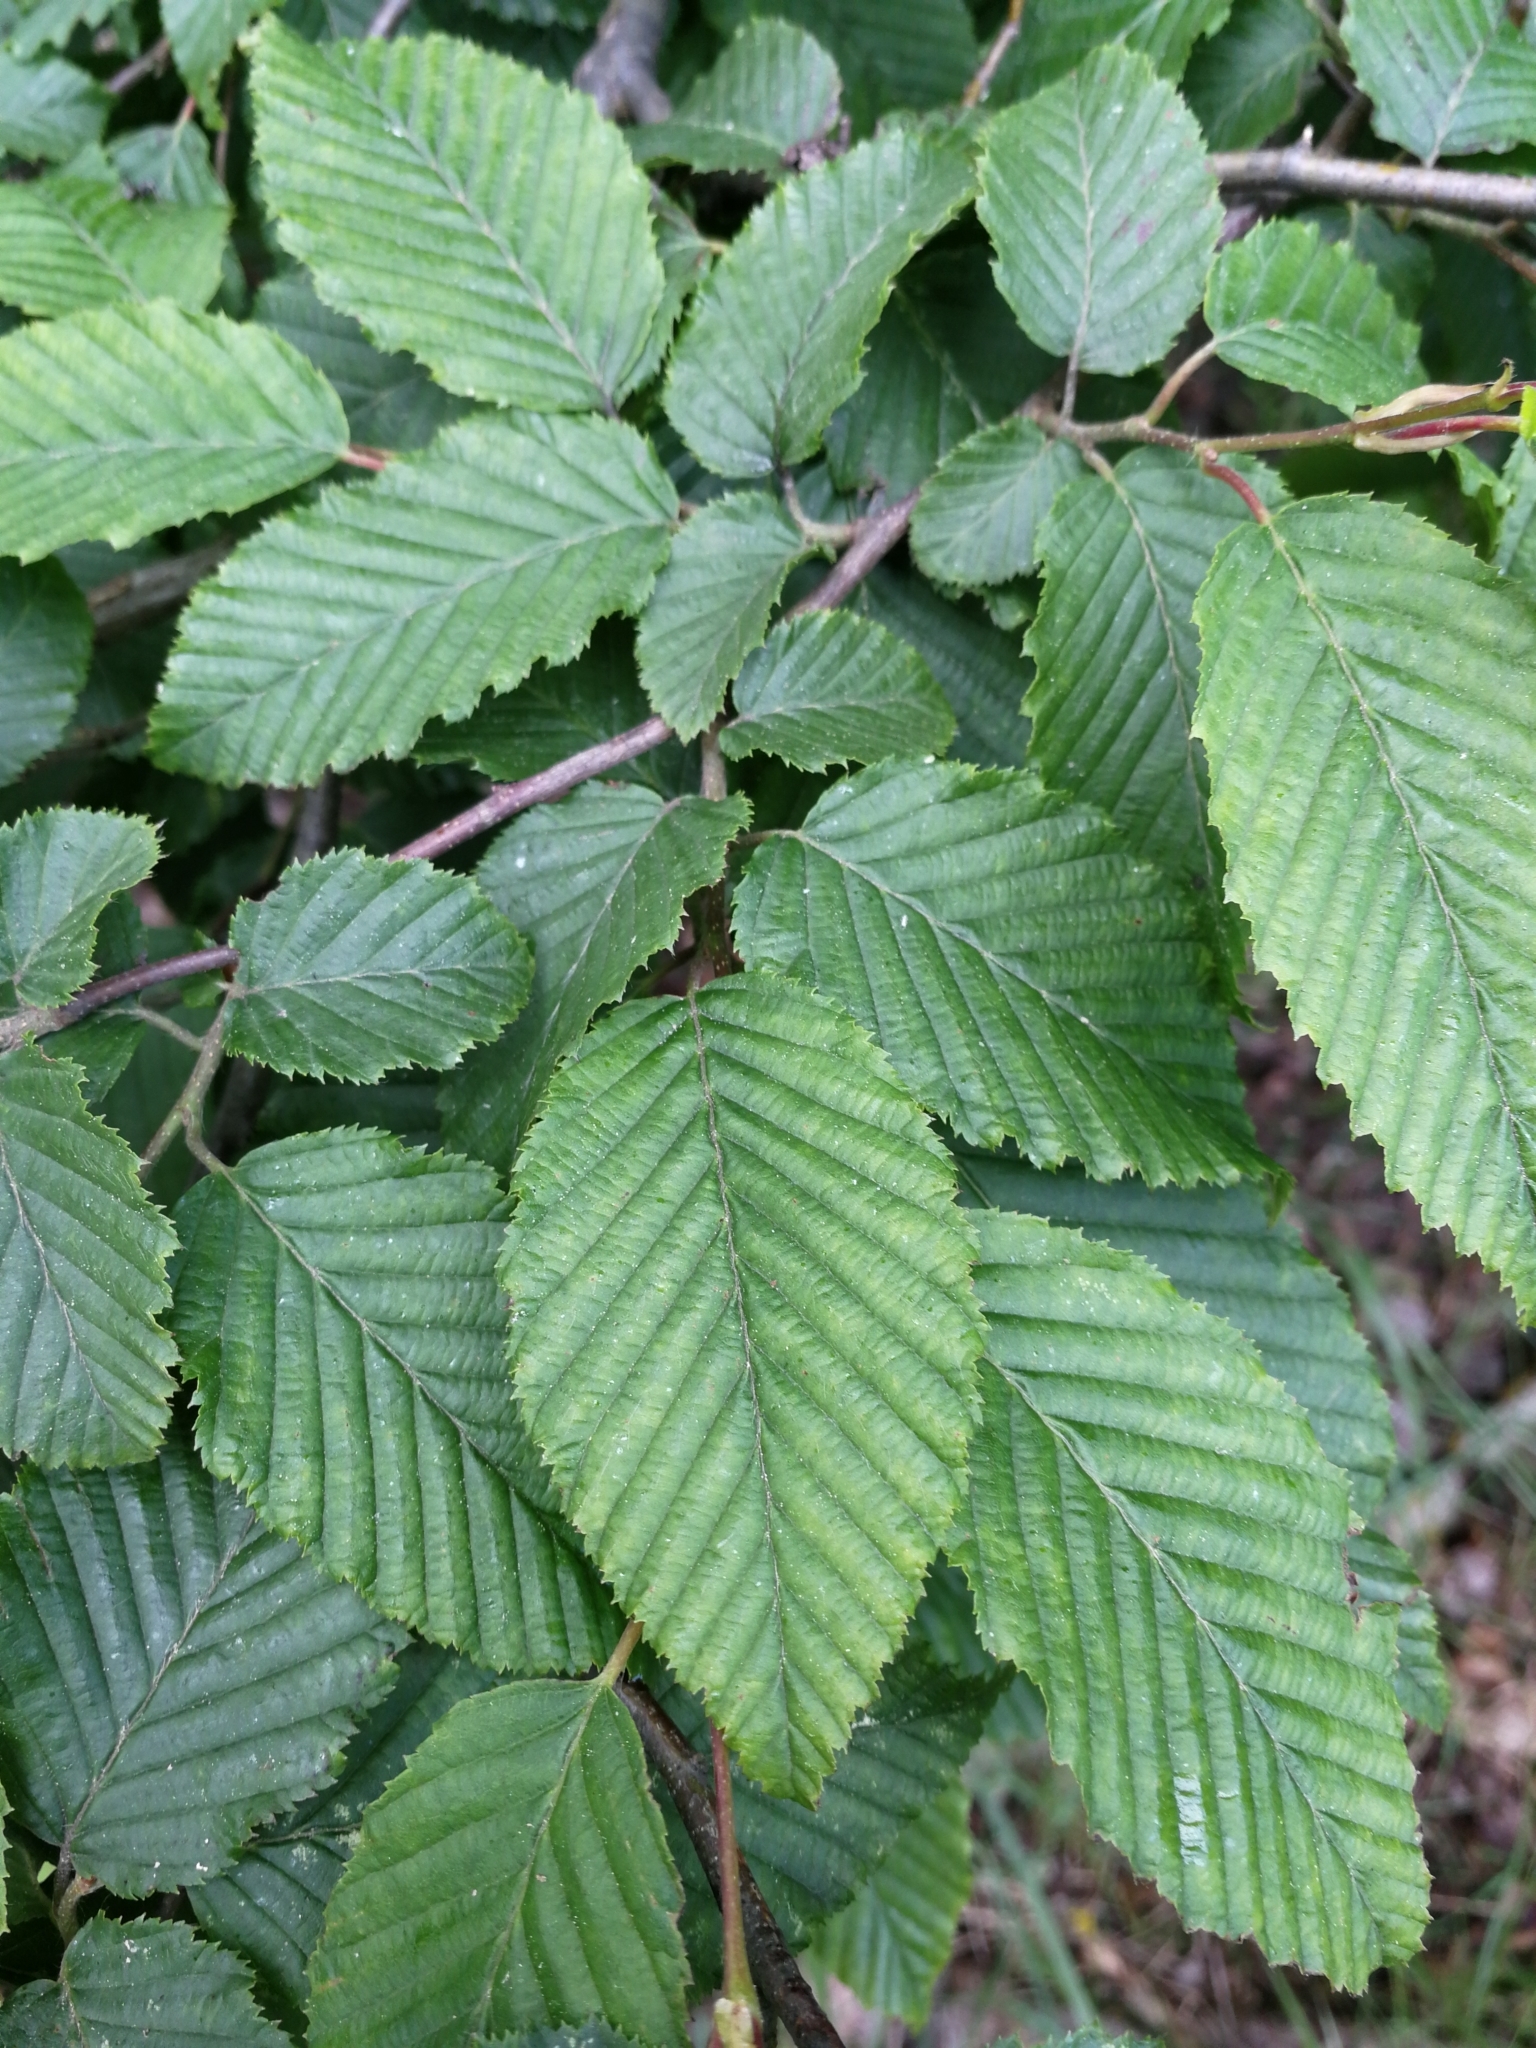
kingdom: Plantae
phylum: Tracheophyta
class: Magnoliopsida
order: Fagales
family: Betulaceae
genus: Carpinus
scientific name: Carpinus betulus
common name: Hornbeam
